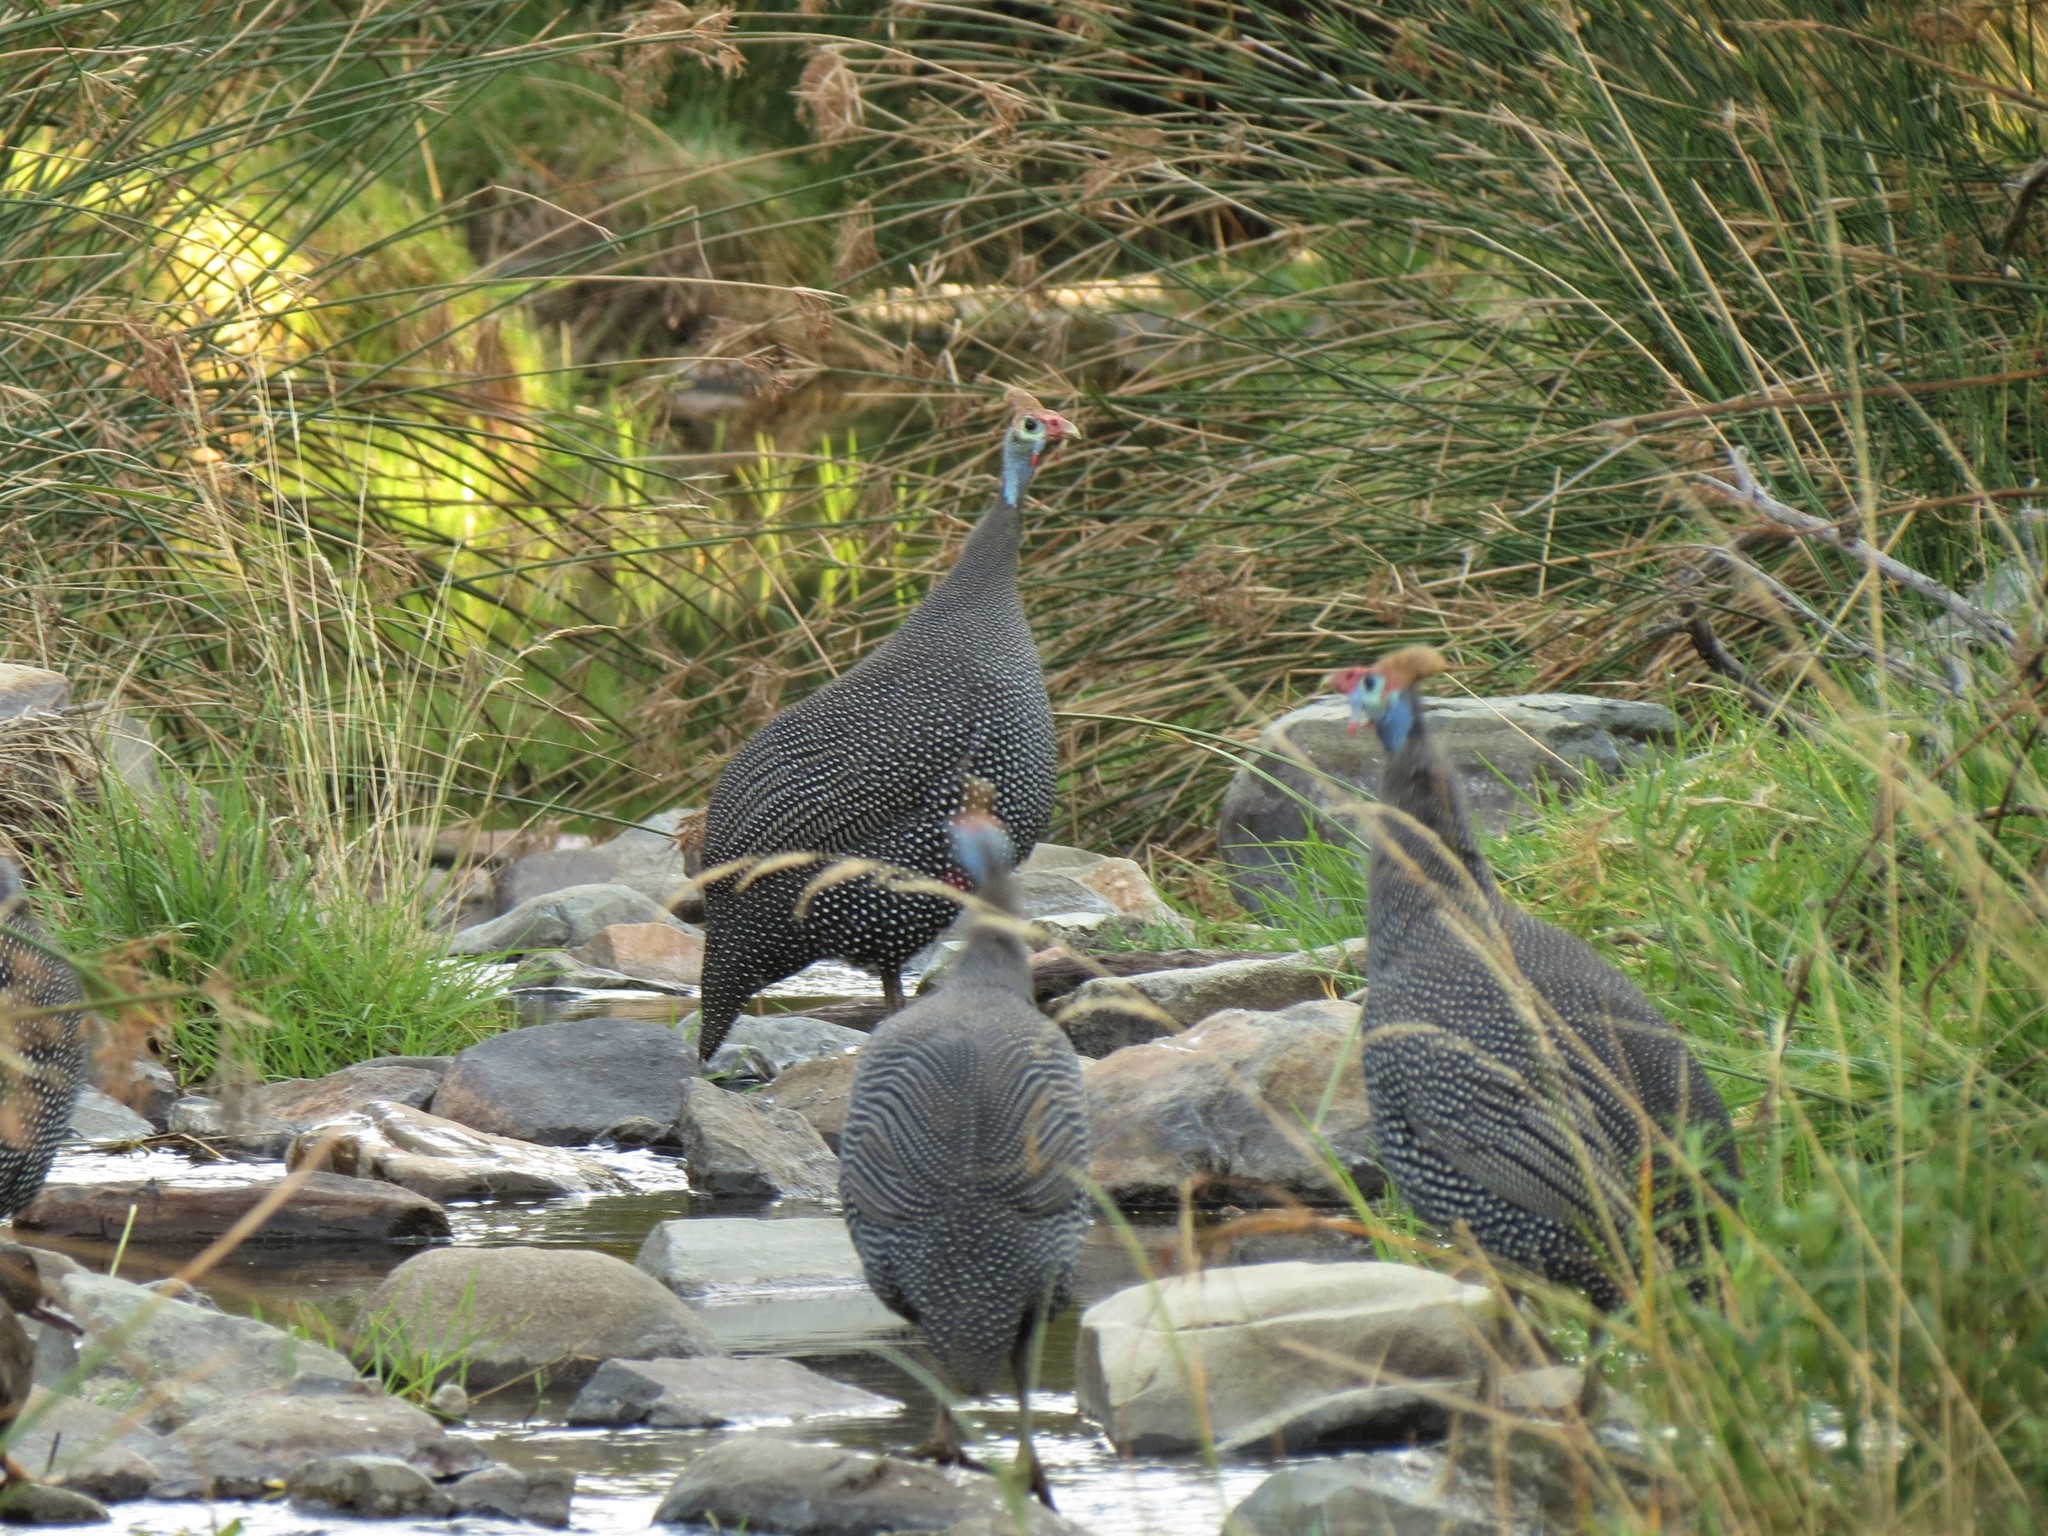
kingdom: Animalia
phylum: Chordata
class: Aves
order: Galliformes
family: Numididae
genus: Numida
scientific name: Numida meleagris
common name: Helmeted guineafowl
